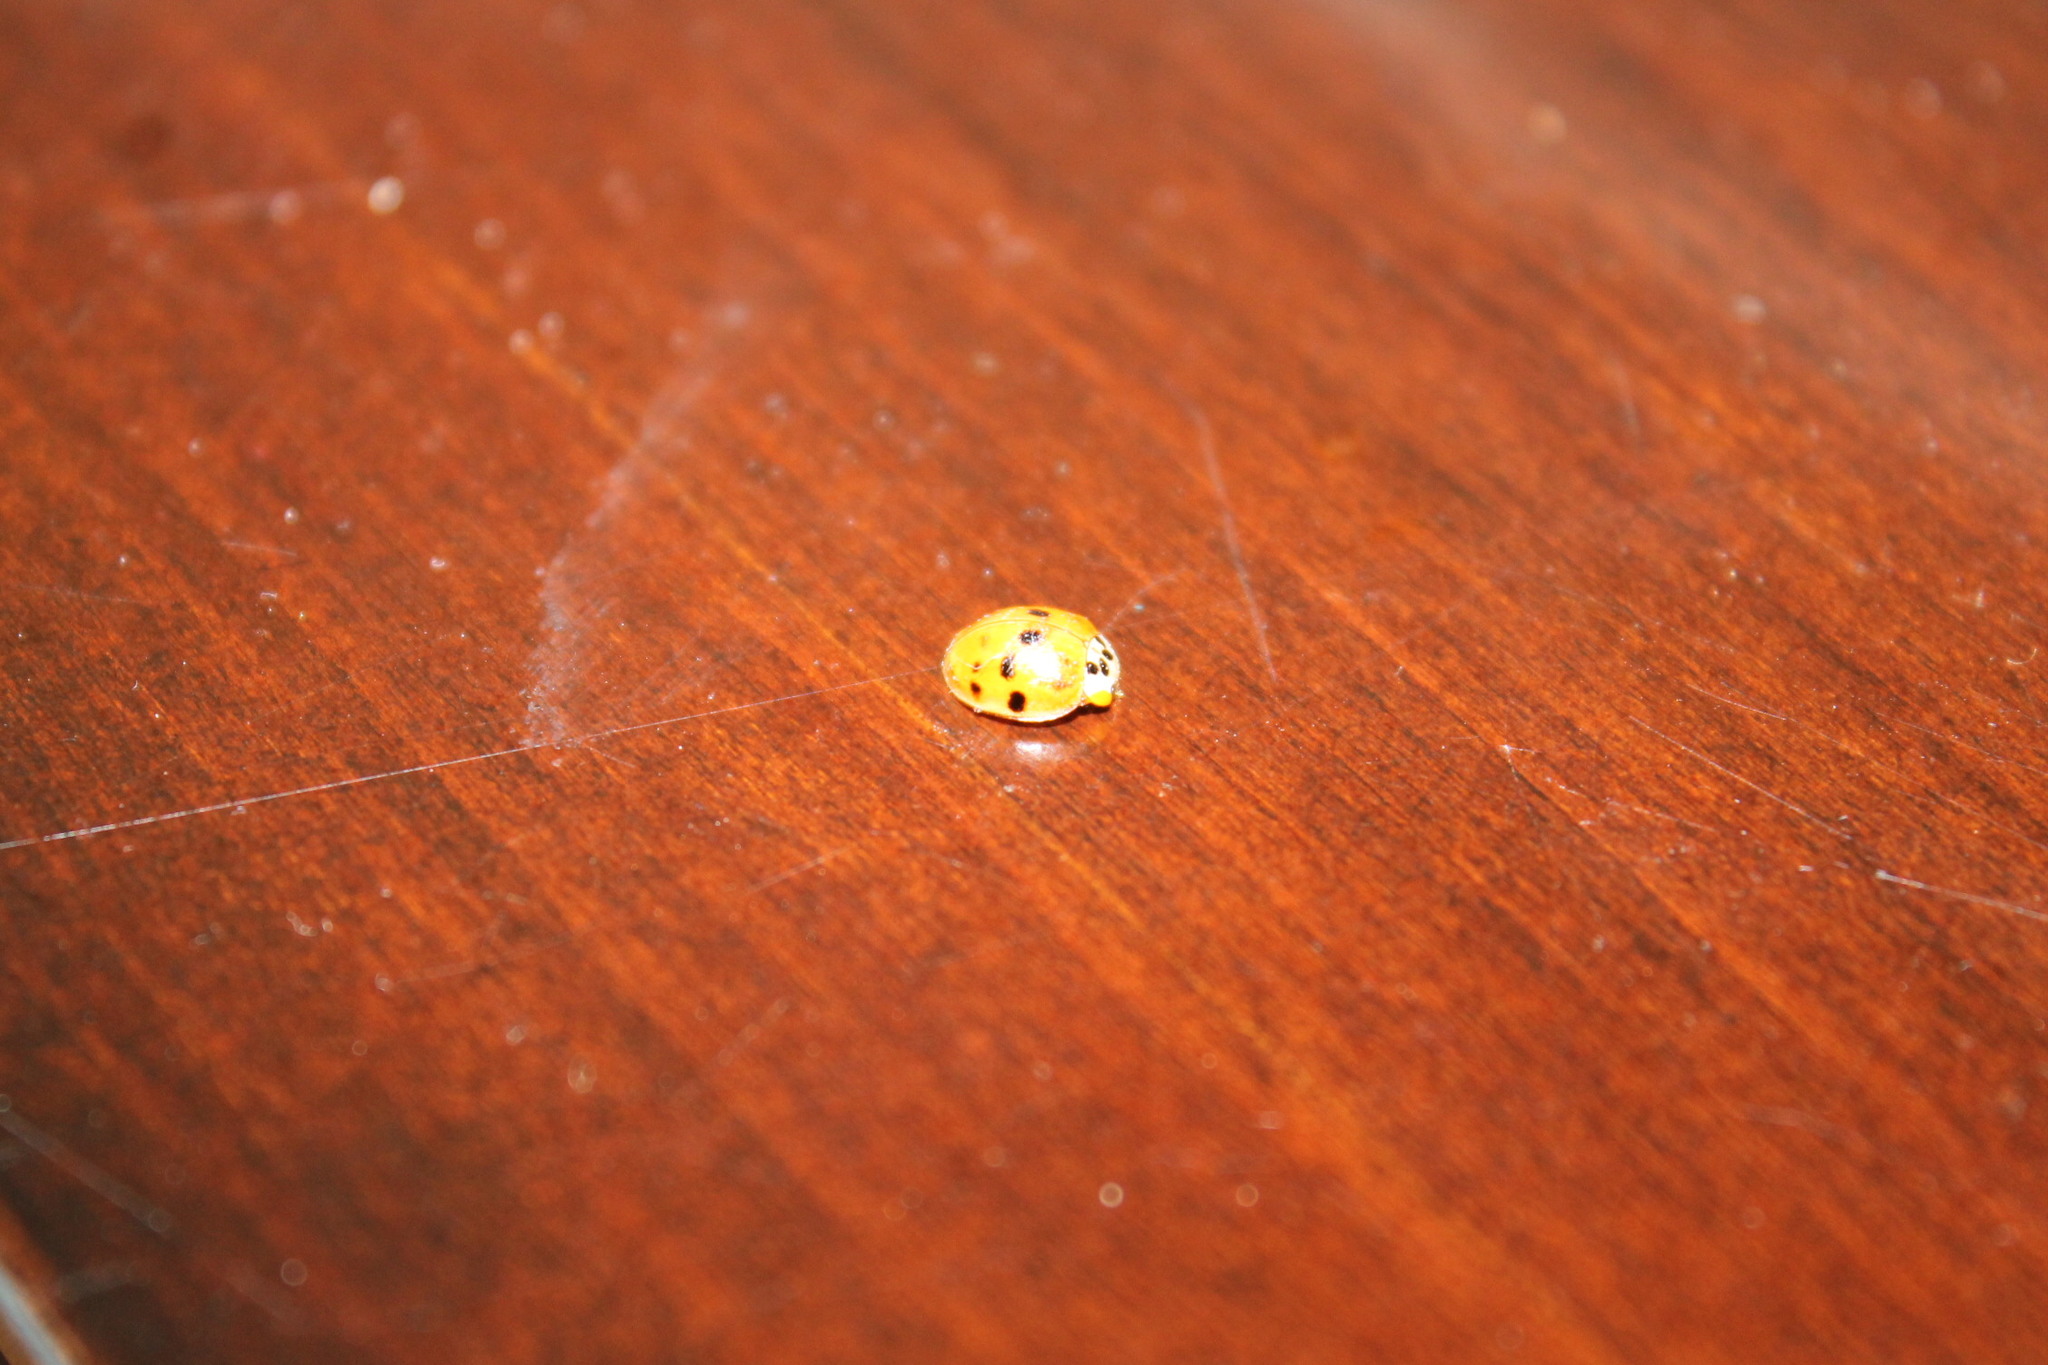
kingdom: Animalia
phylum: Arthropoda
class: Insecta
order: Coleoptera
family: Coccinellidae
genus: Harmonia
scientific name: Harmonia axyridis
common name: Harlequin ladybird
